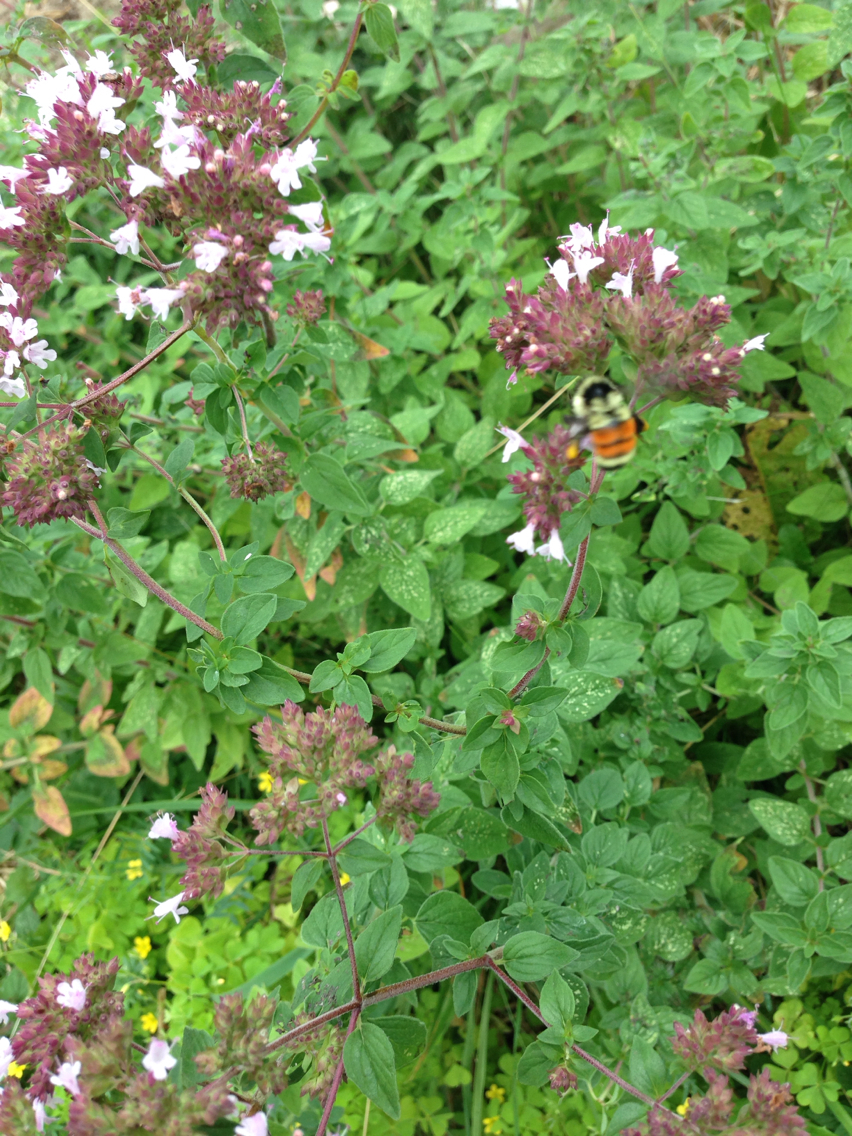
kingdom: Animalia
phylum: Arthropoda
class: Insecta
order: Hymenoptera
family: Apidae
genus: Bombus
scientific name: Bombus ternarius
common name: Tri-colored bumble bee
